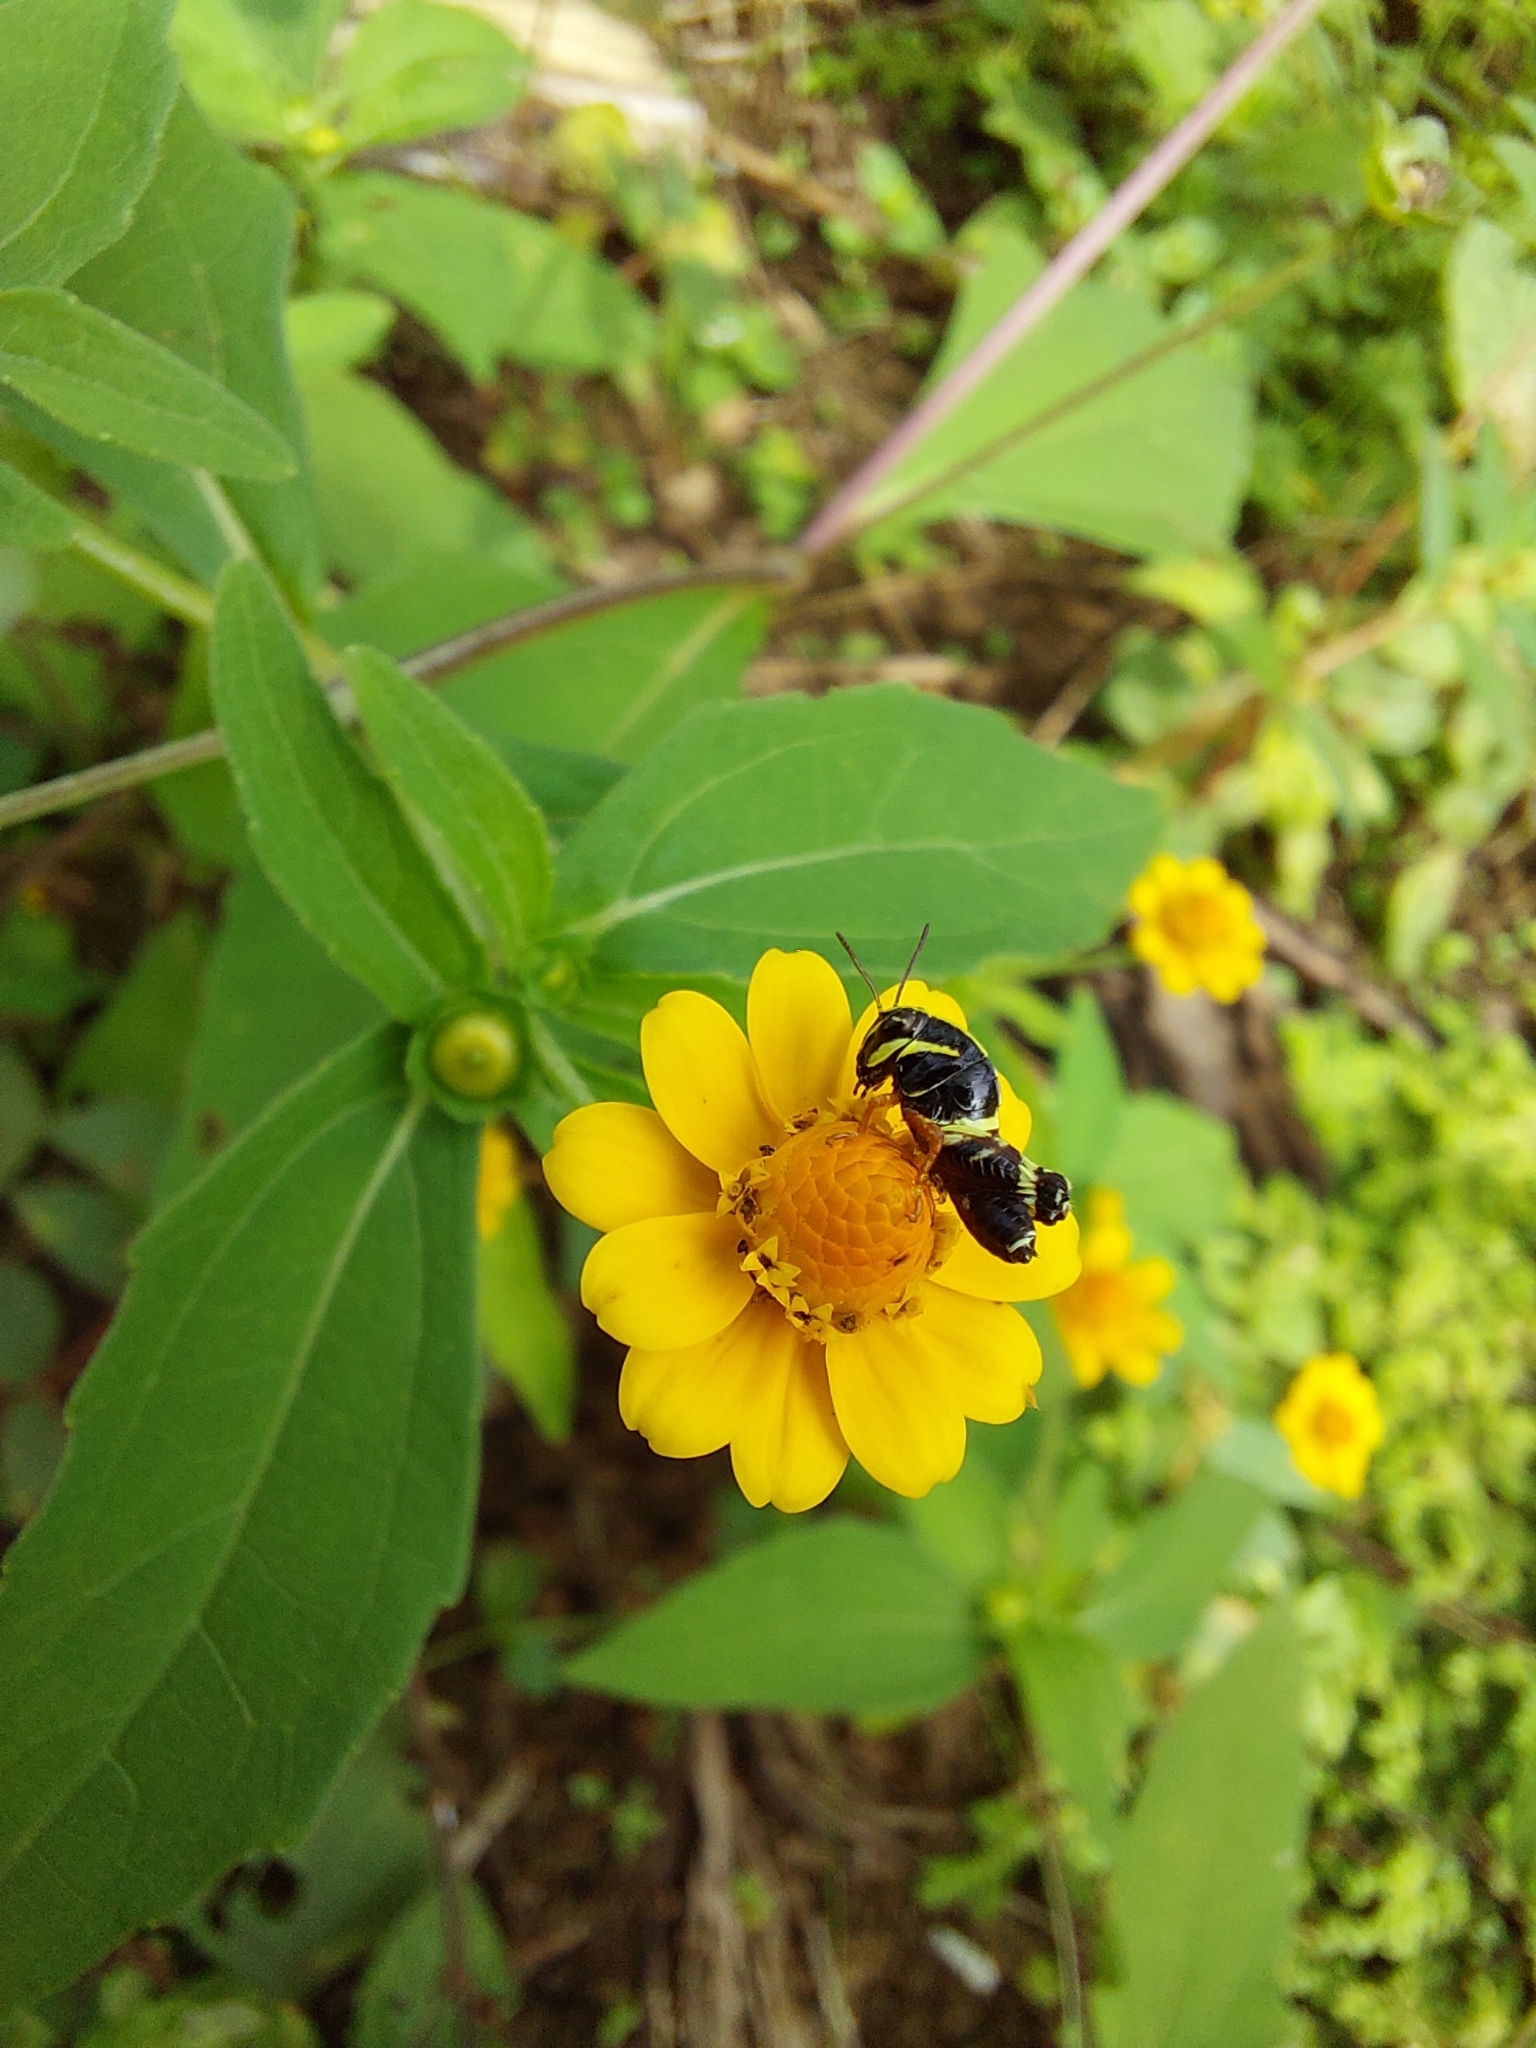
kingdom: Animalia
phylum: Arthropoda
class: Insecta
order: Orthoptera
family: Acrididae
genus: Aidemona
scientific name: Aidemona azteca
